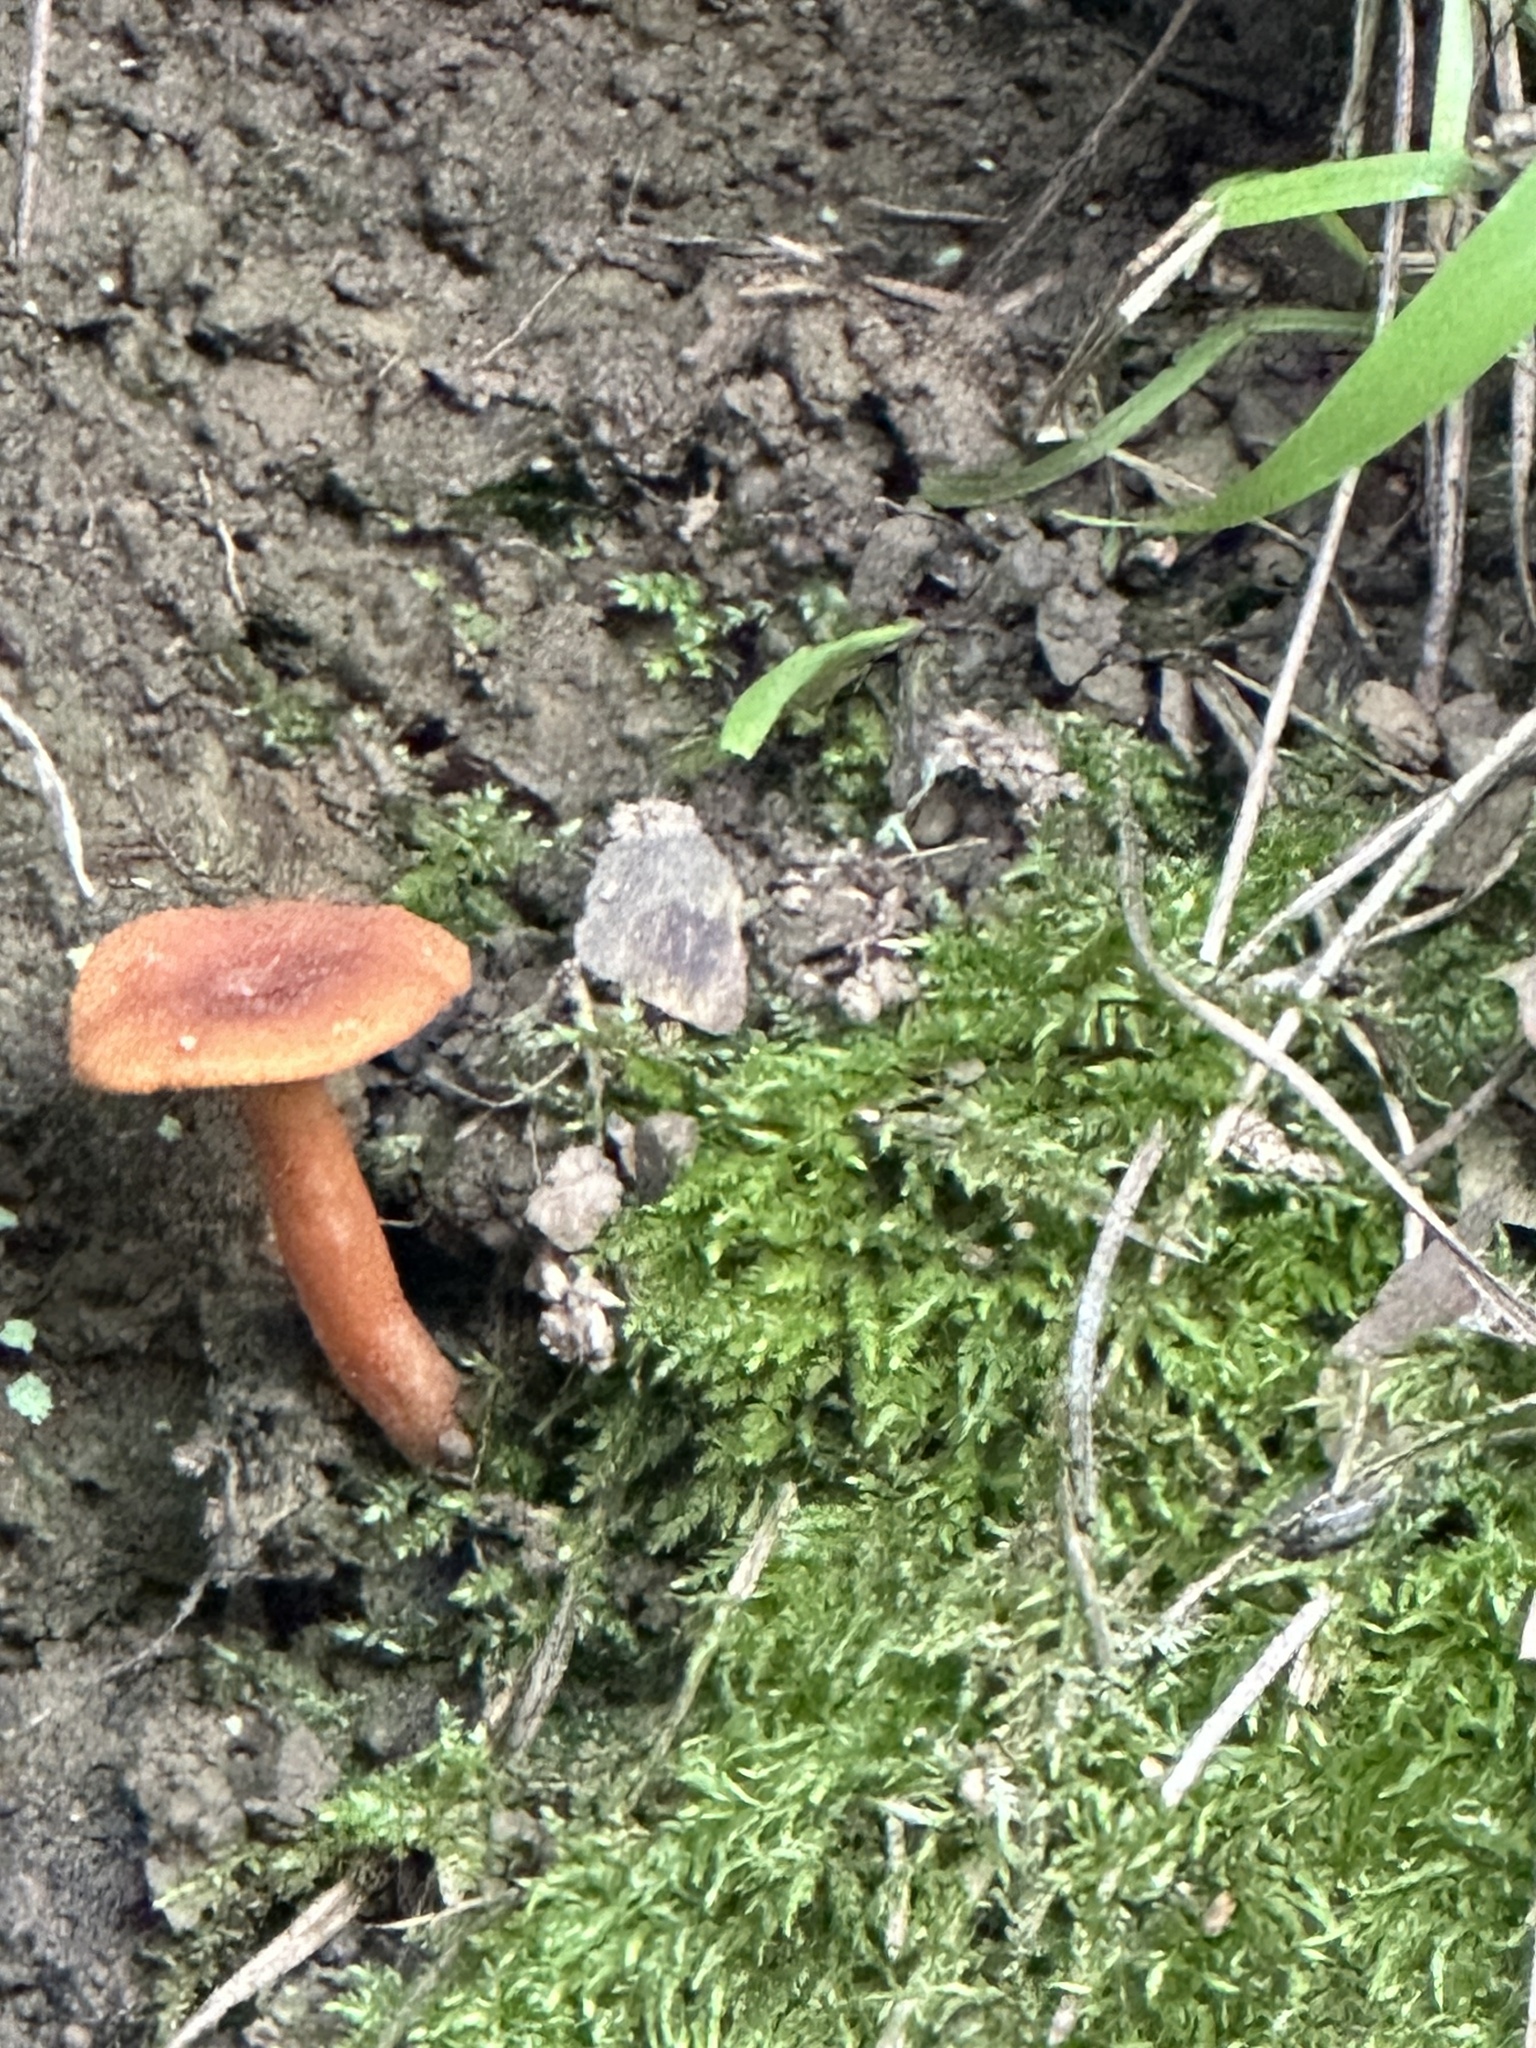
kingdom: Fungi
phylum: Basidiomycota
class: Agaricomycetes
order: Russulales
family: Russulaceae
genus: Lactarius
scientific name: Lactarius rubidus
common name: Candy cap
